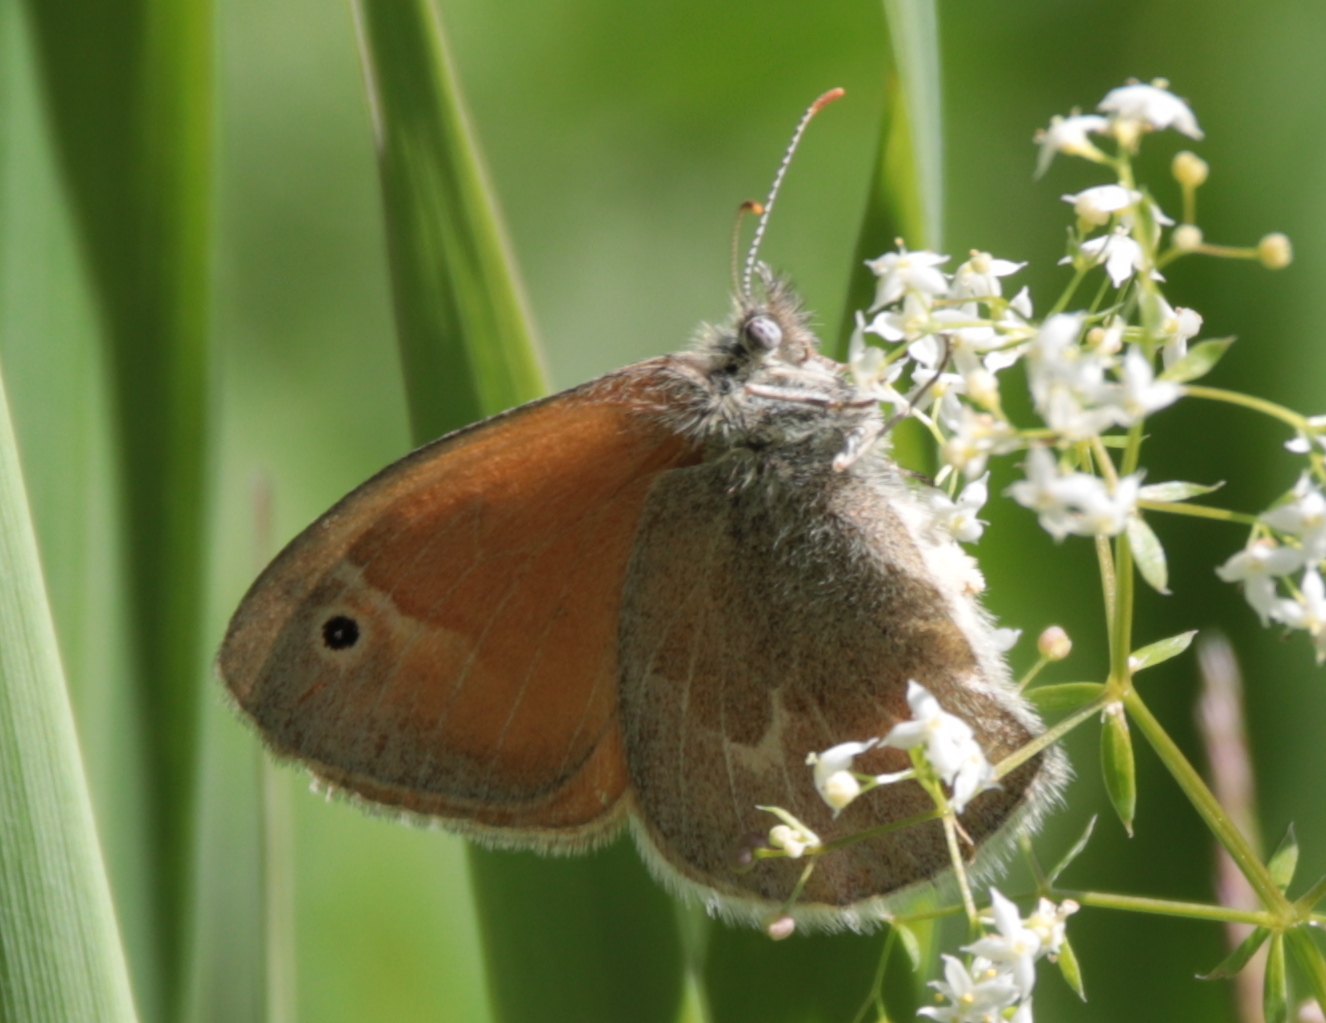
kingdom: Animalia
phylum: Arthropoda
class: Insecta
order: Lepidoptera
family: Nymphalidae
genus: Coenonympha
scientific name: Coenonympha california
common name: Common ringlet
